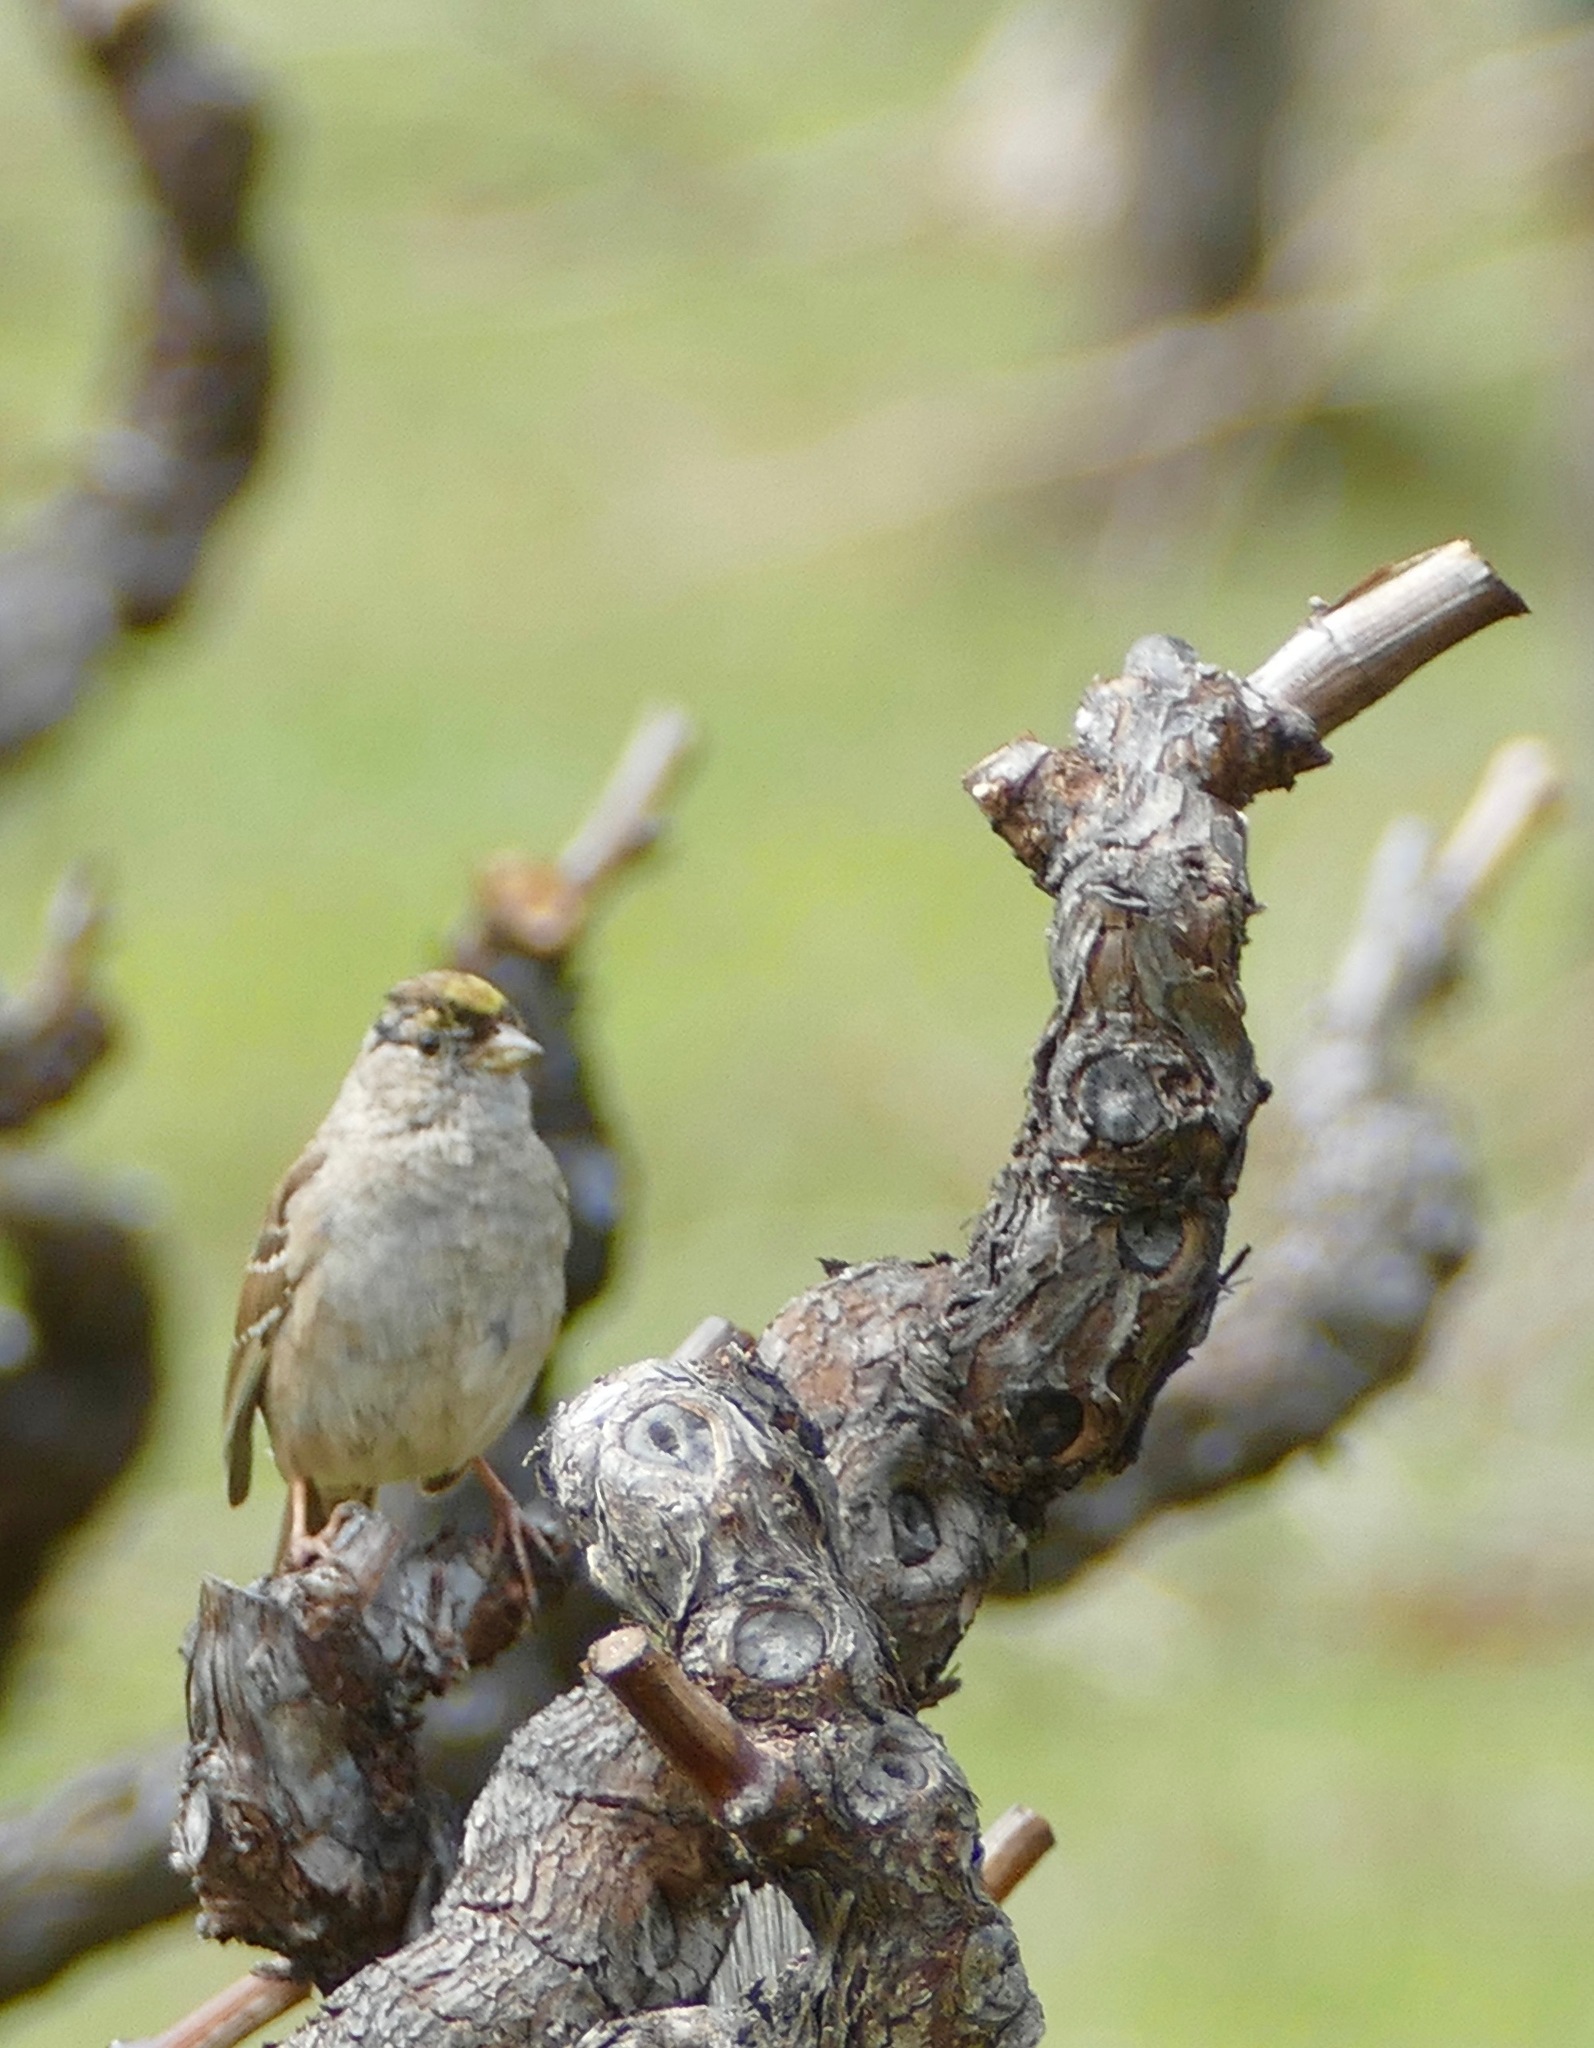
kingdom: Animalia
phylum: Chordata
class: Aves
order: Passeriformes
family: Passerellidae
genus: Zonotrichia
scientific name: Zonotrichia atricapilla
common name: Golden-crowned sparrow
